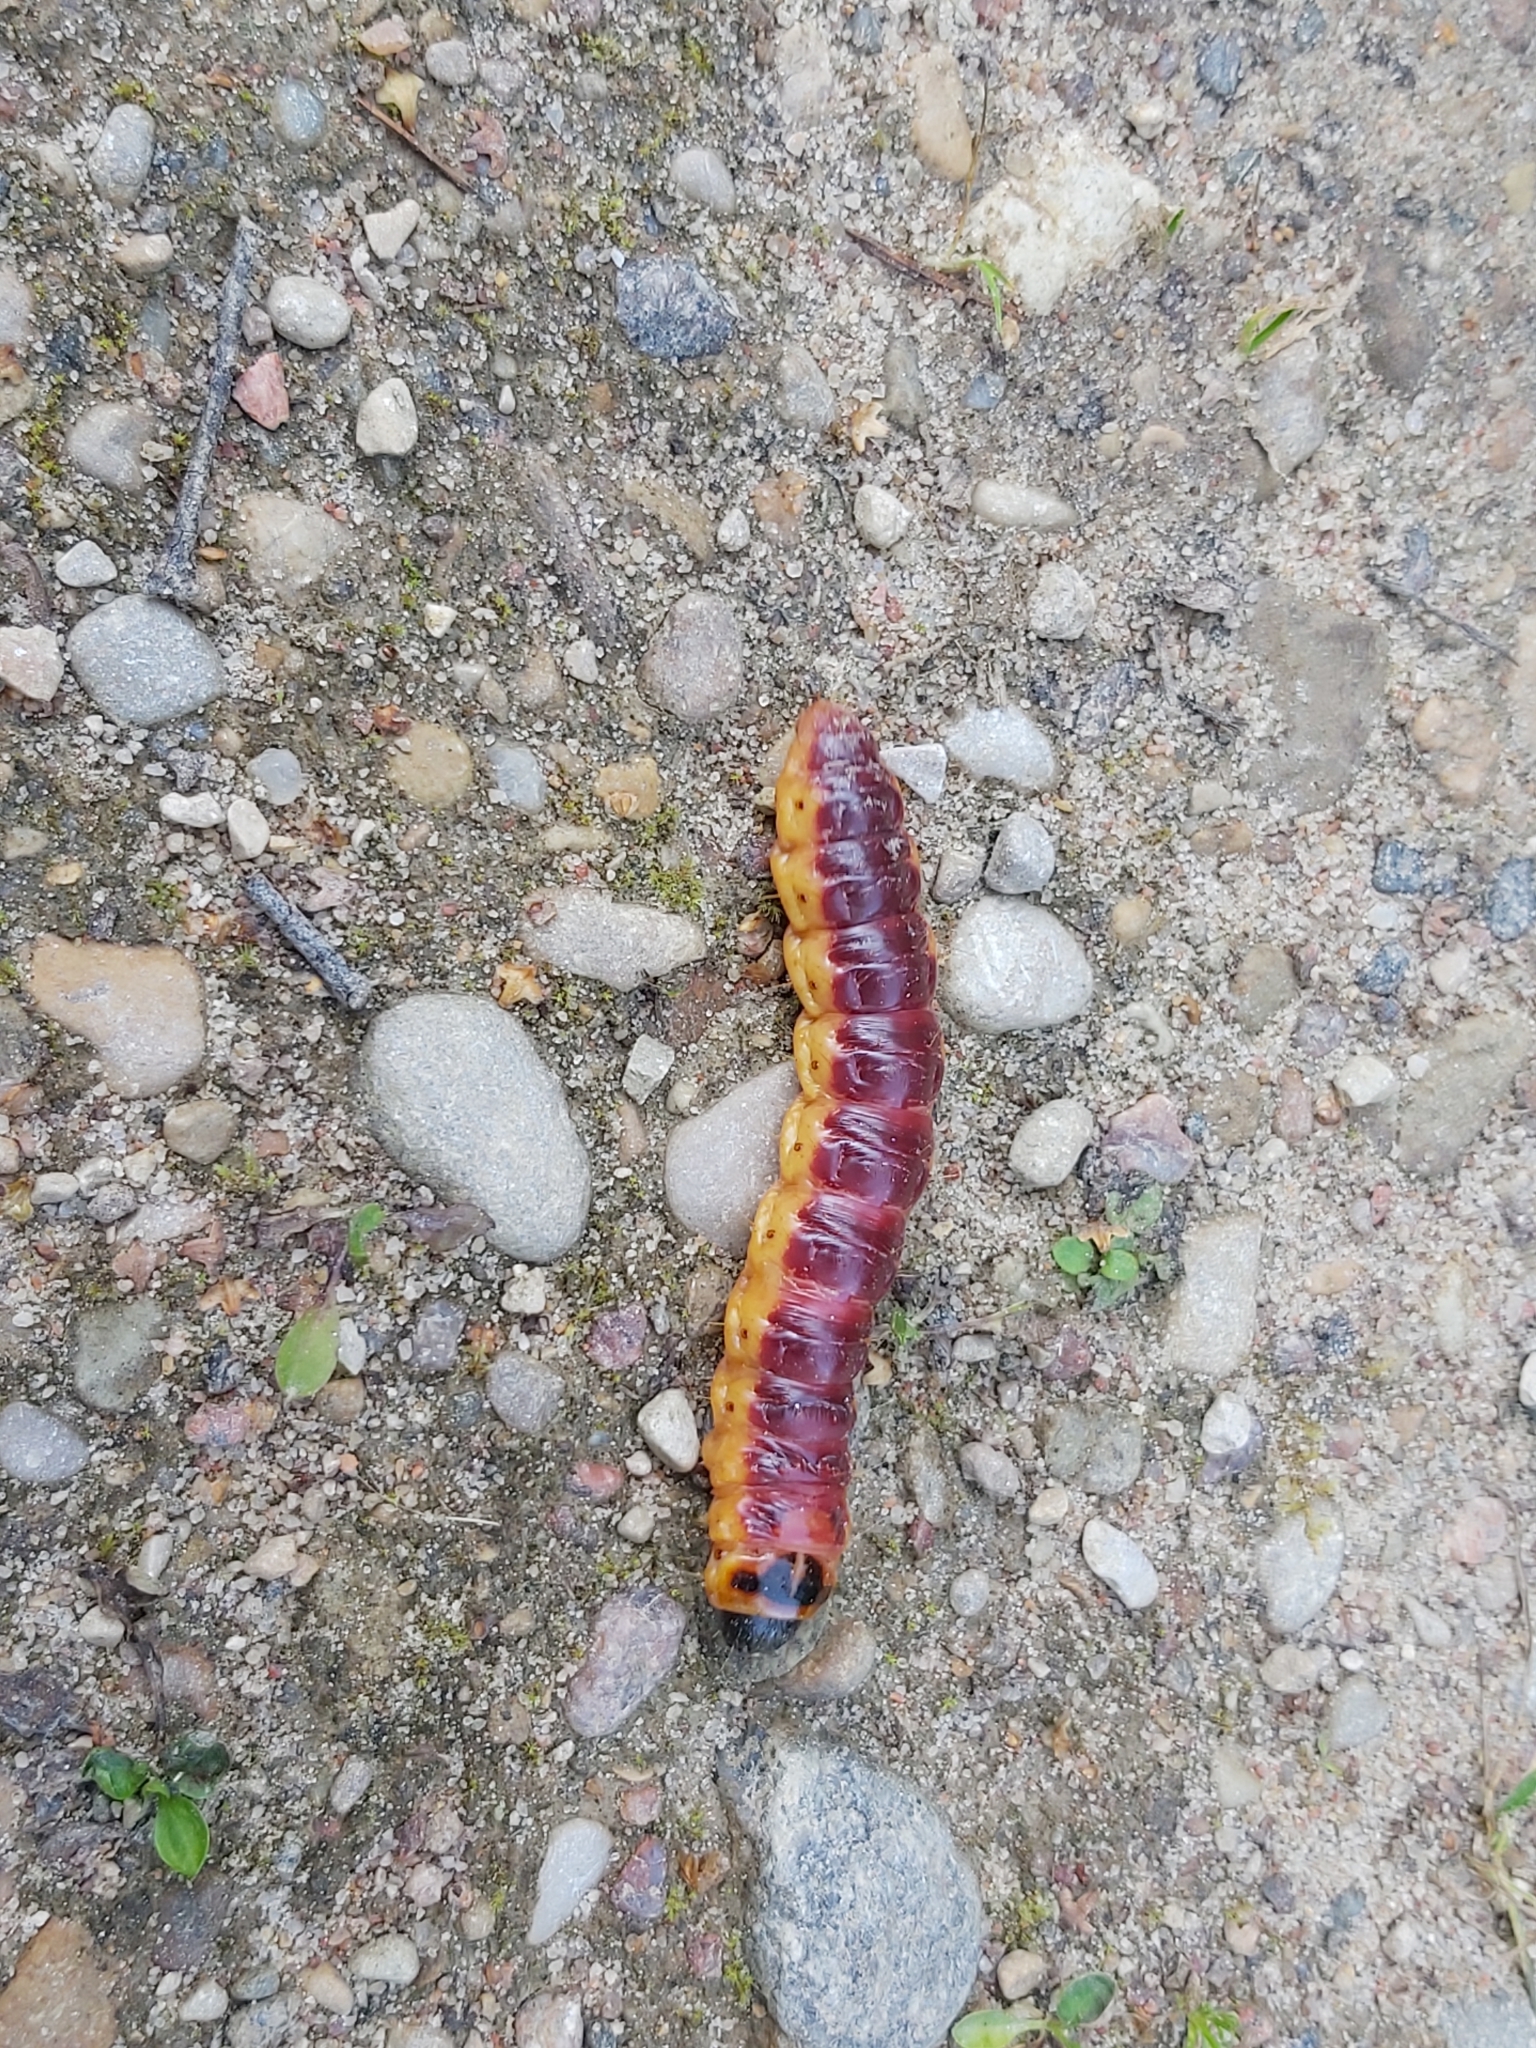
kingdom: Animalia
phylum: Arthropoda
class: Insecta
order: Lepidoptera
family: Cossidae
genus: Cossus
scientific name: Cossus cossus
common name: Goat moth
